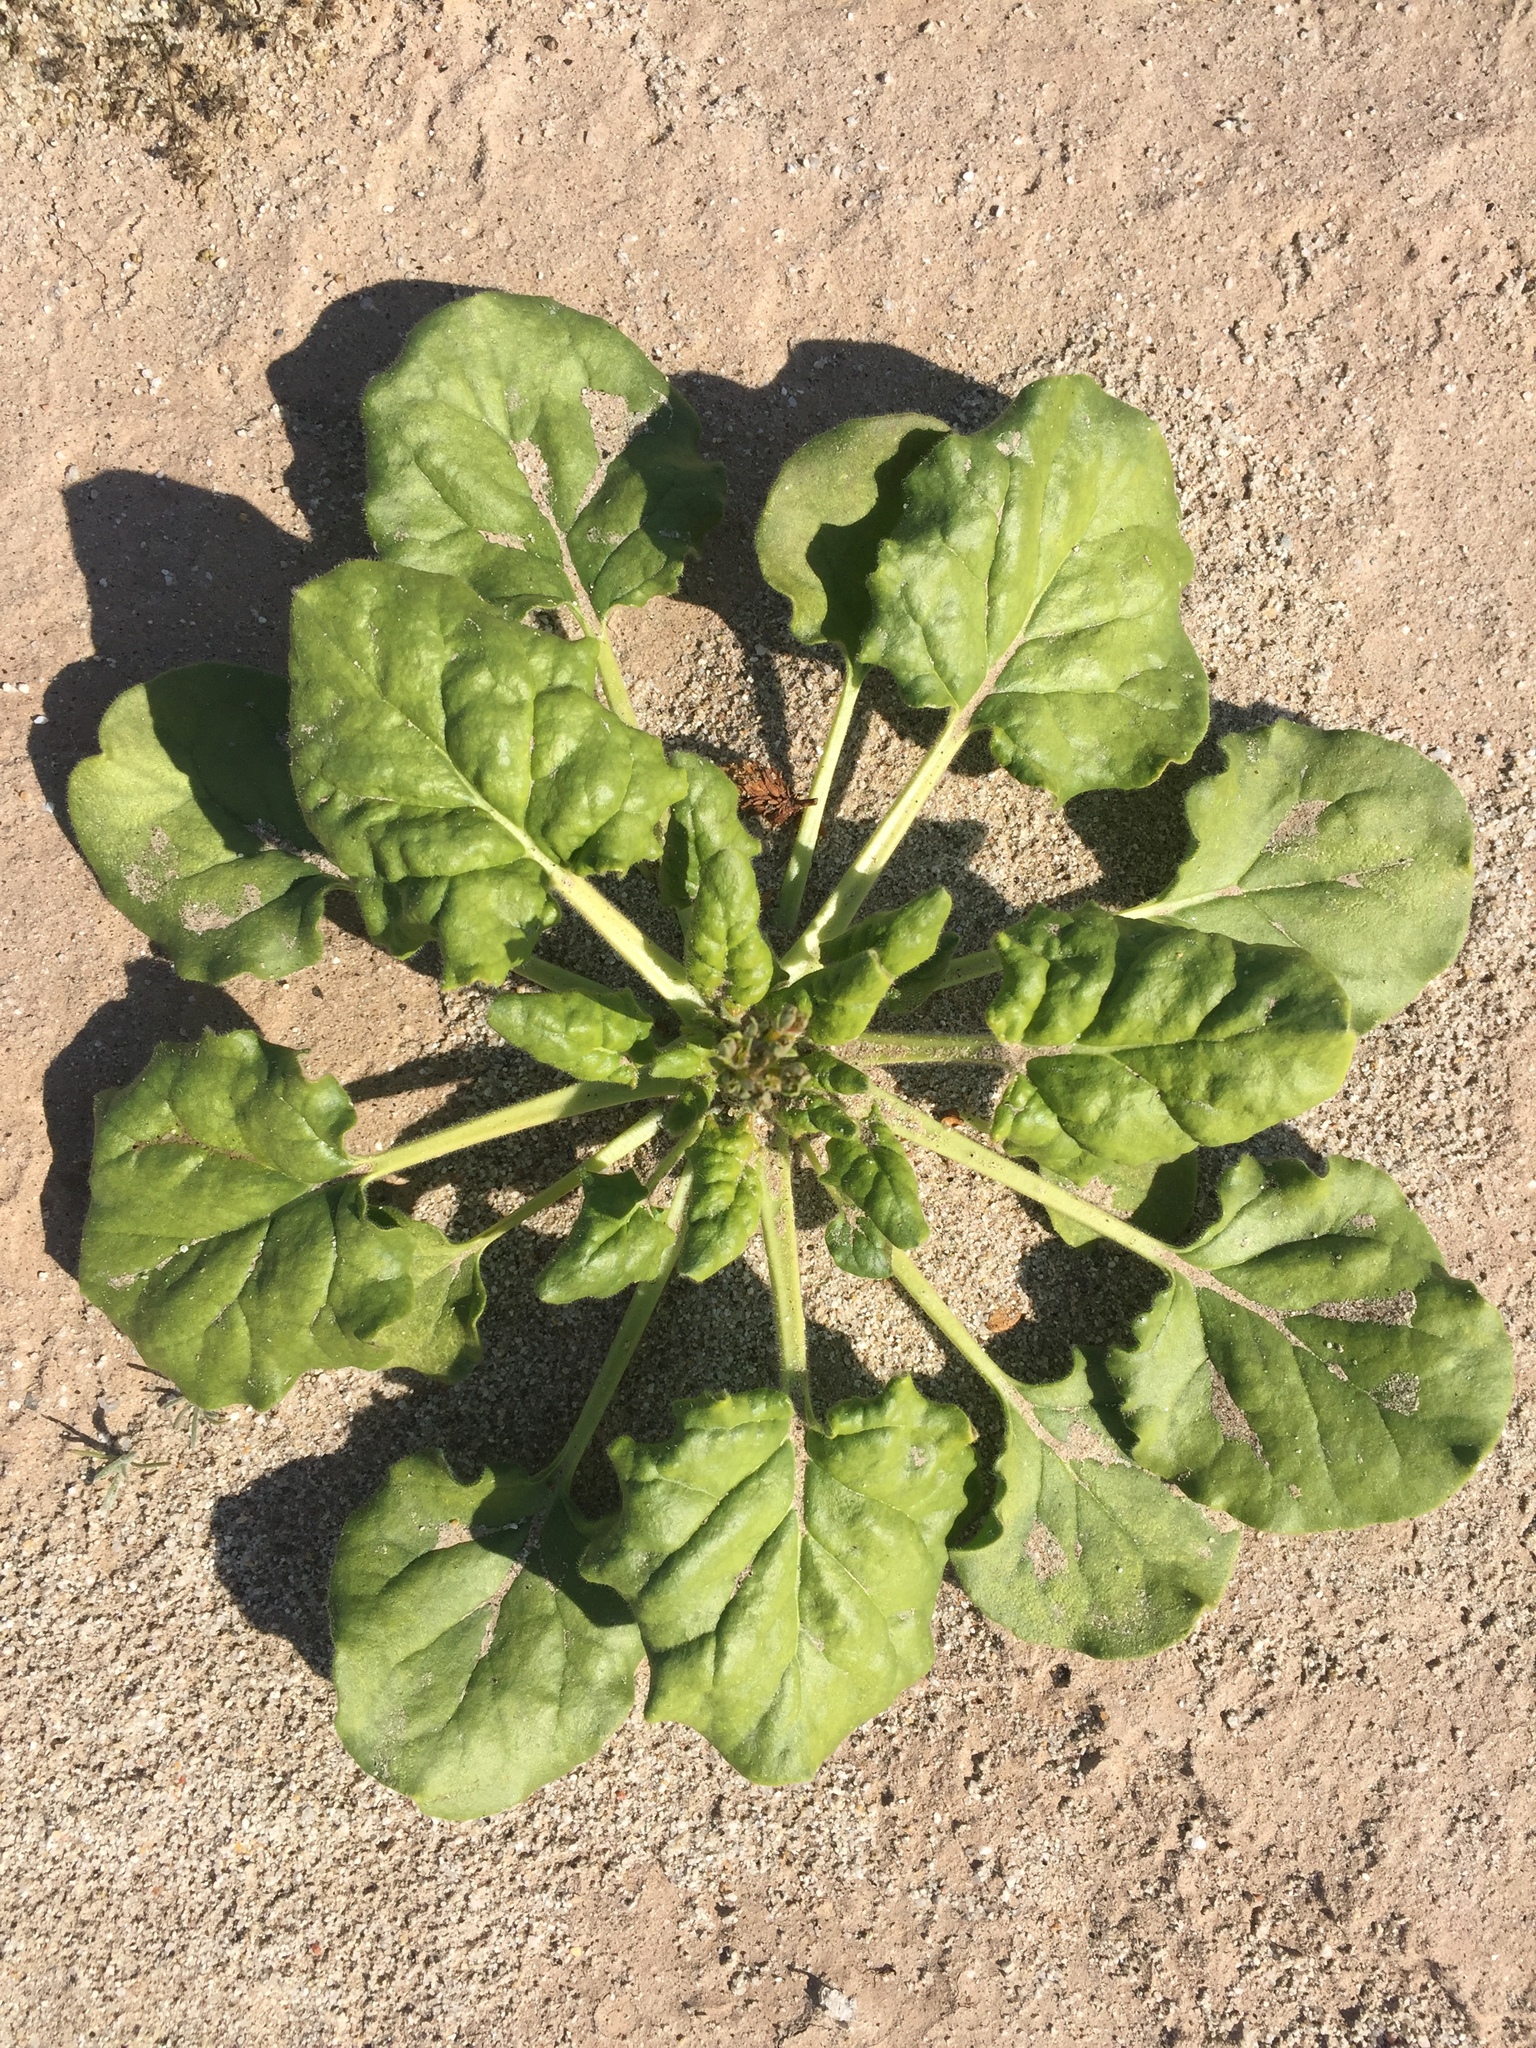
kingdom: Plantae
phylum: Tracheophyta
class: Magnoliopsida
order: Caryophyllales
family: Polygonaceae
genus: Eriogonum
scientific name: Eriogonum trichopes
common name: Little desert trumpet
